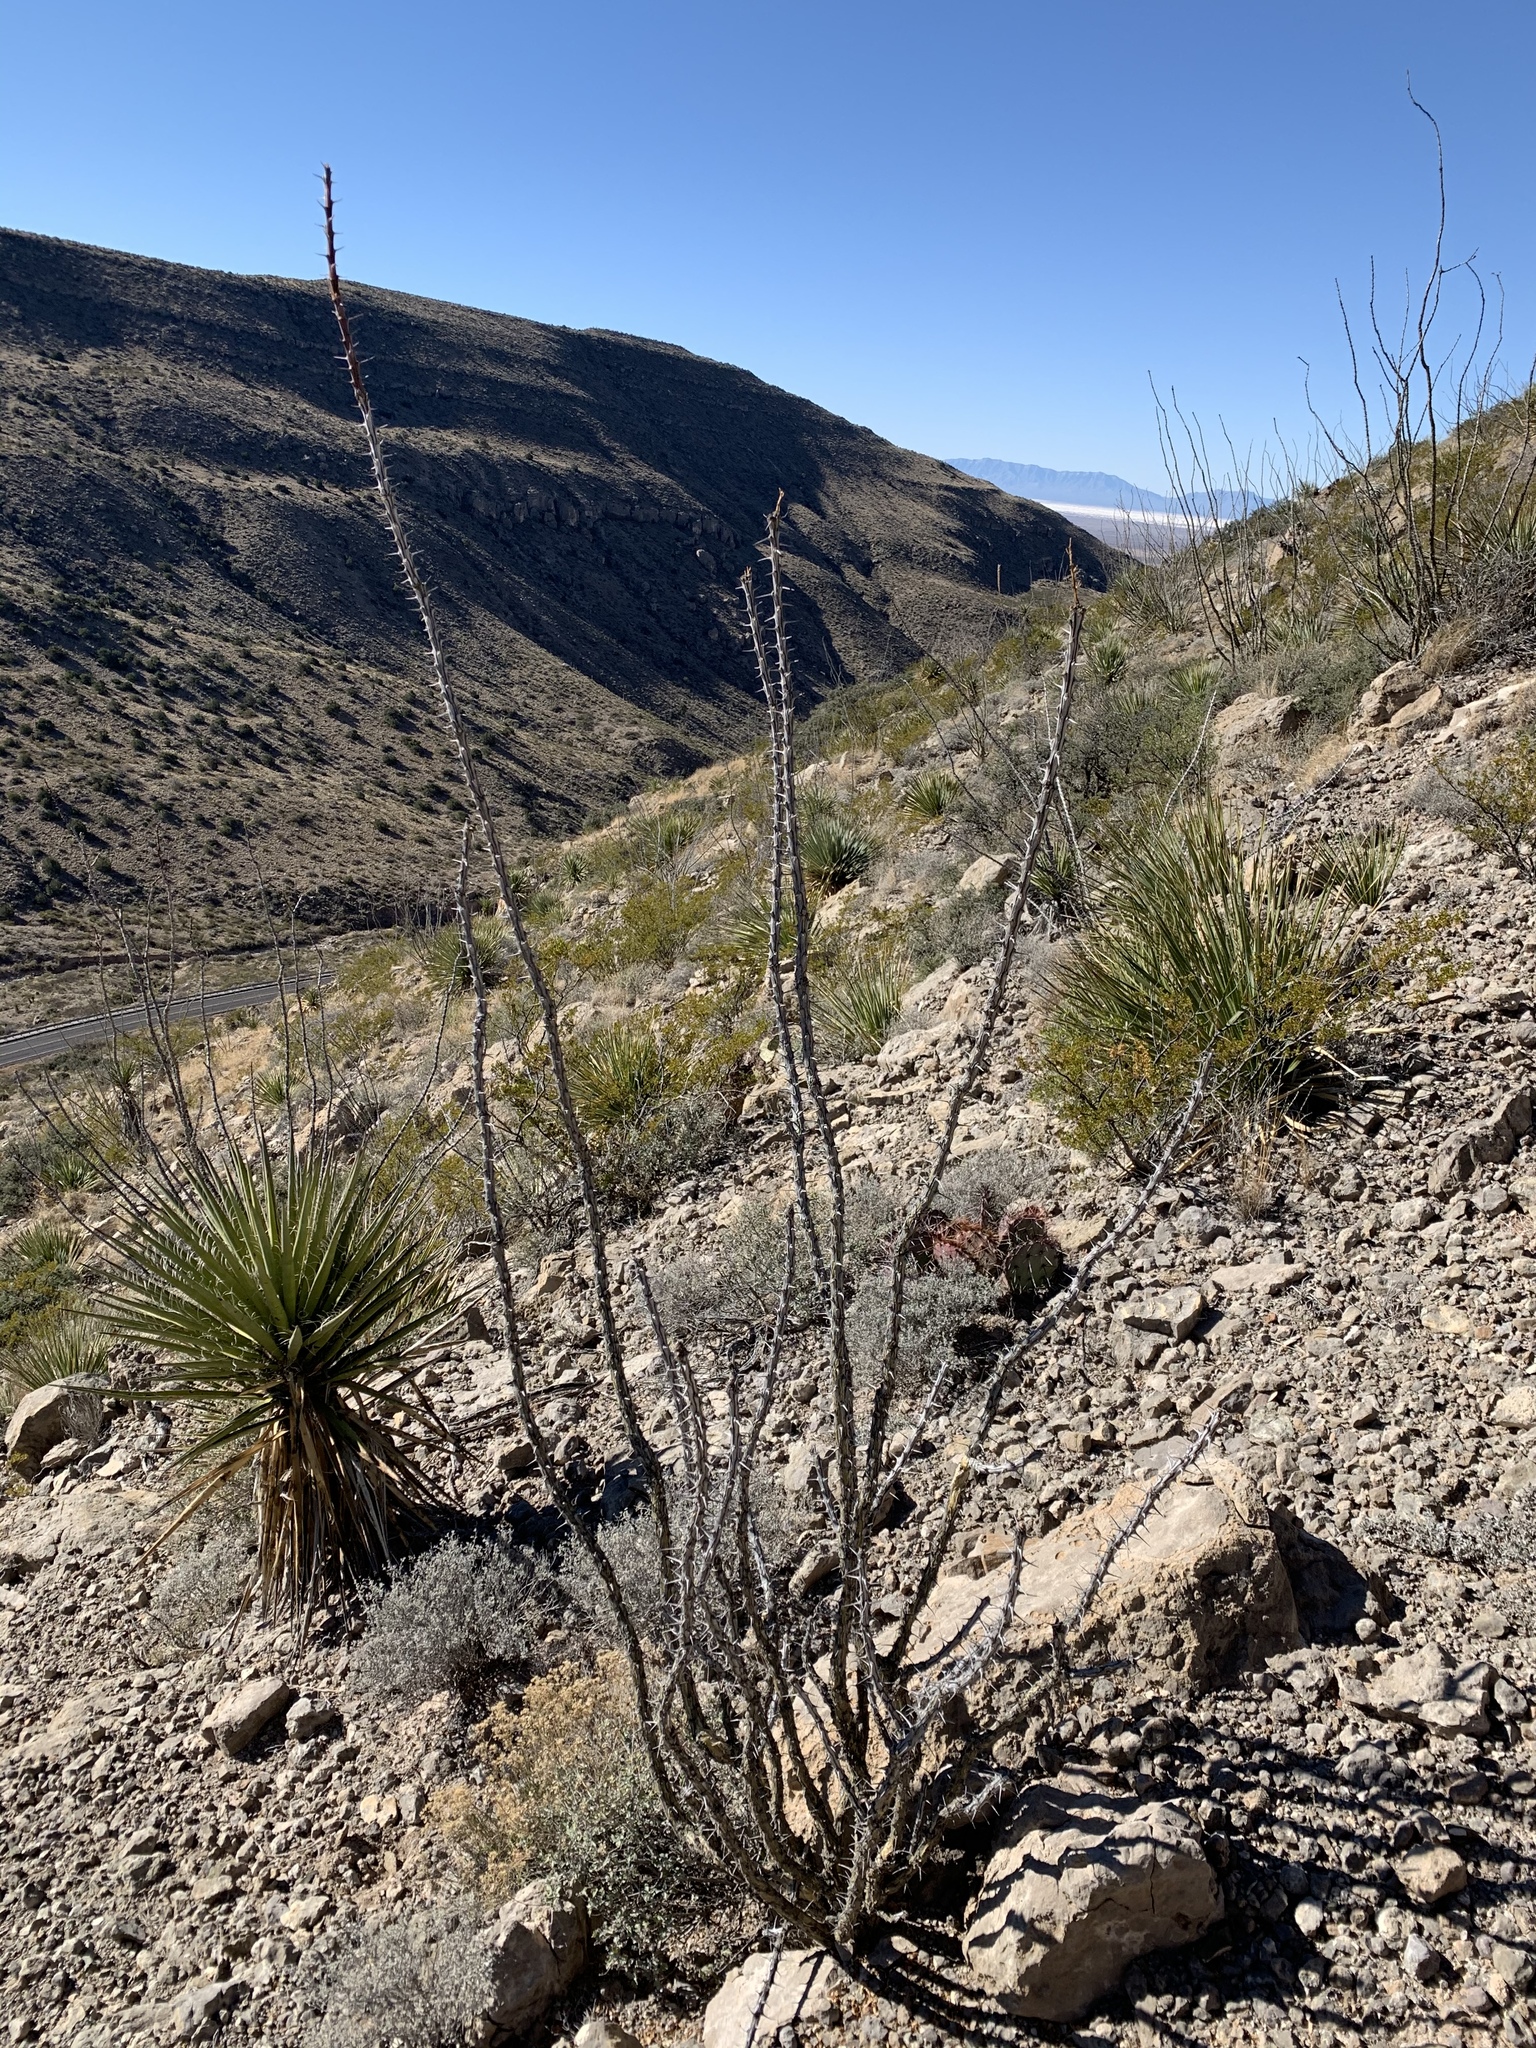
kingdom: Plantae
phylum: Tracheophyta
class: Magnoliopsida
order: Ericales
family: Fouquieriaceae
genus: Fouquieria
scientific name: Fouquieria splendens
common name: Vine-cactus
